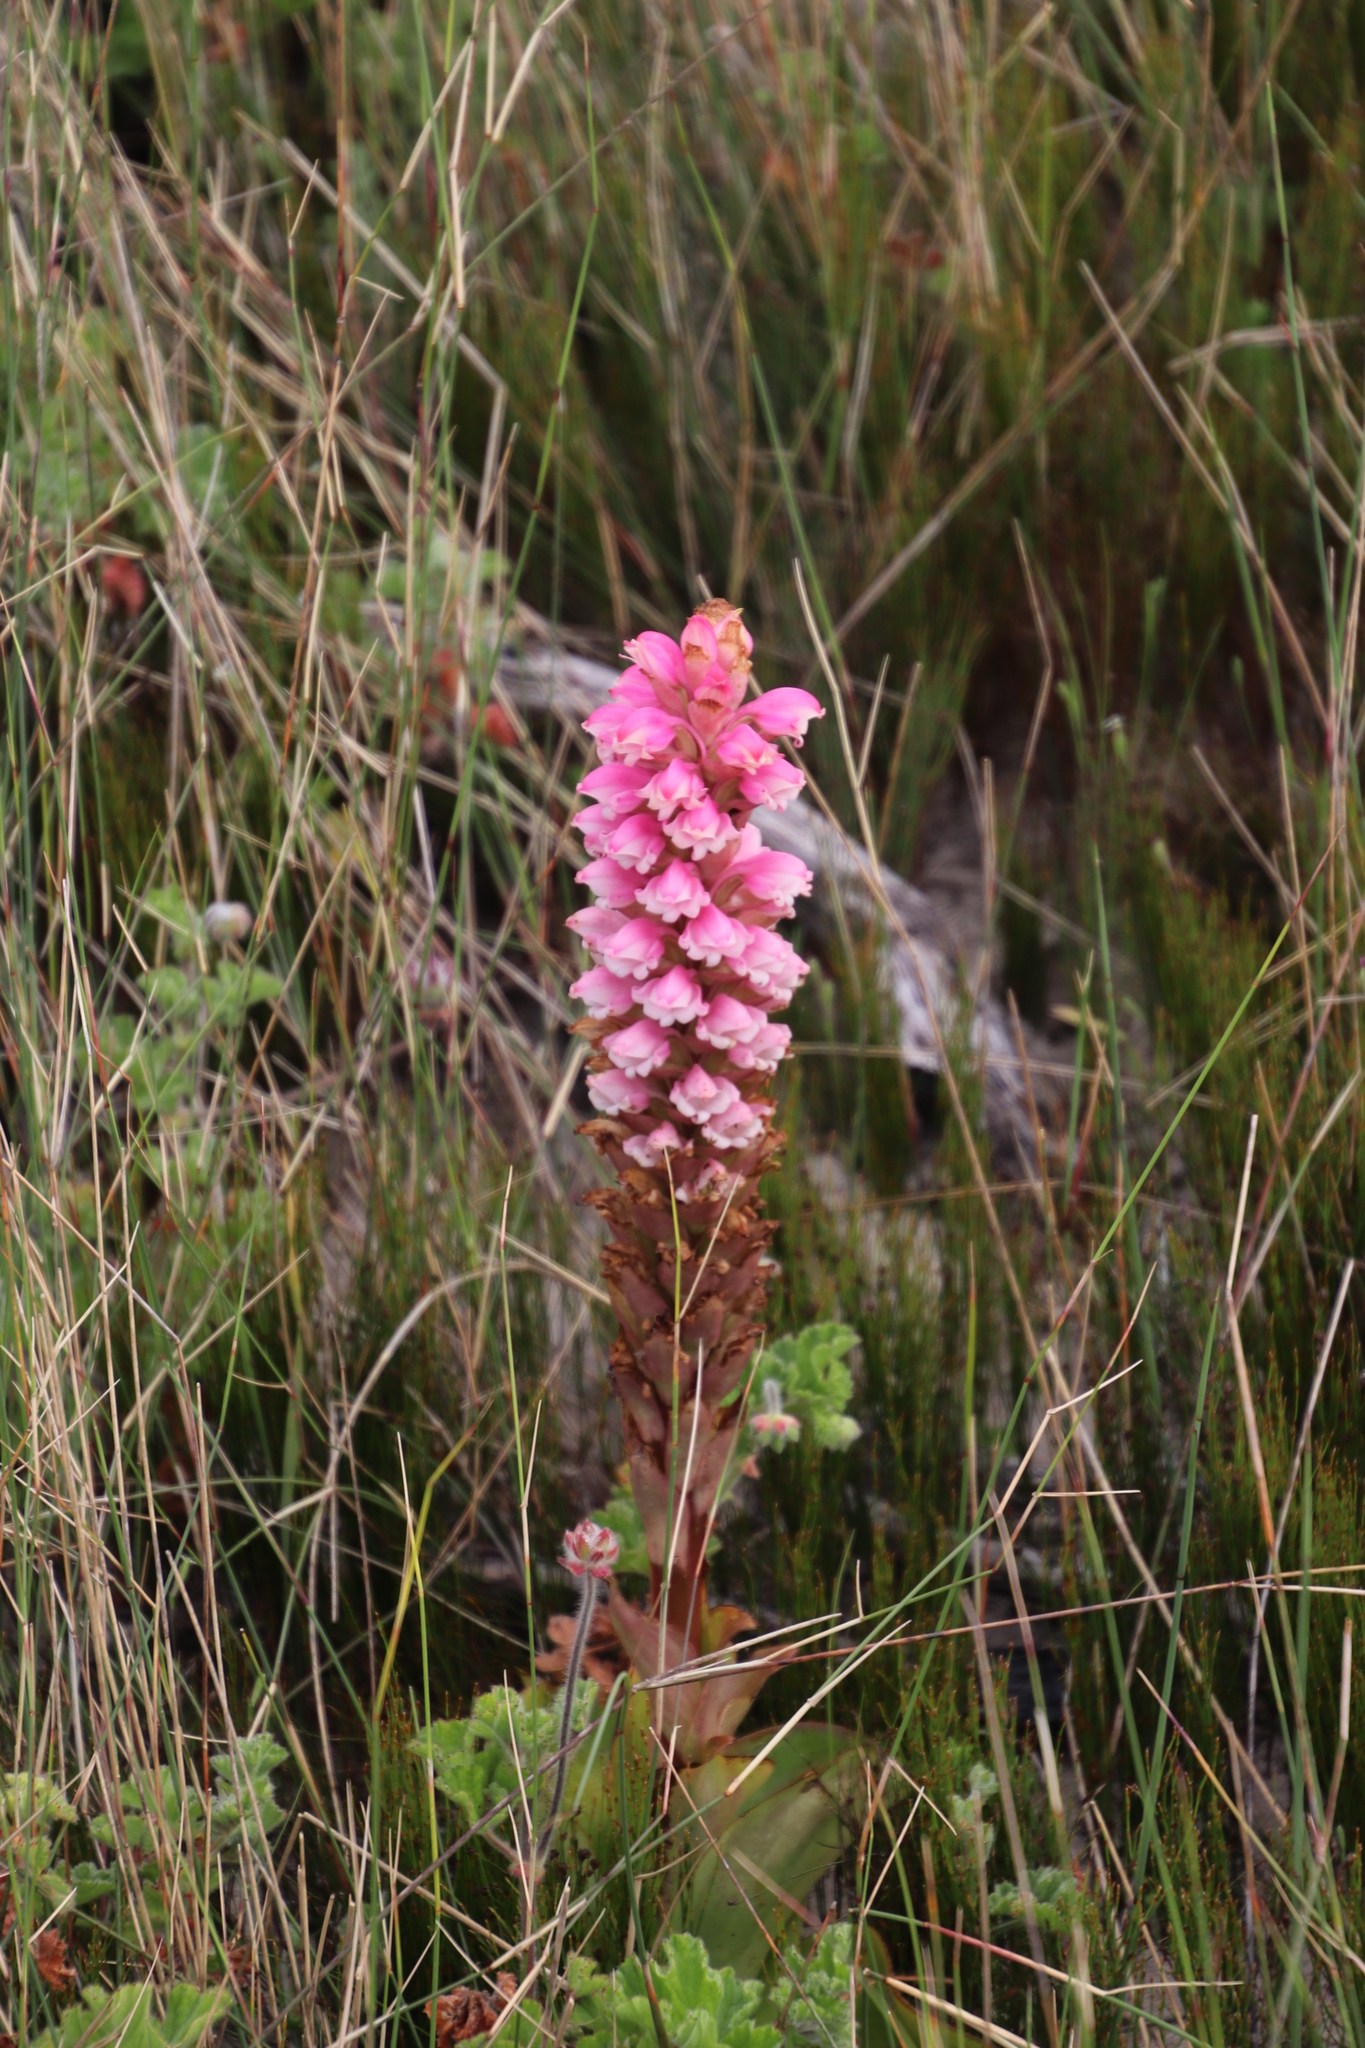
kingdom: Plantae
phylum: Tracheophyta
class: Liliopsida
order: Asparagales
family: Orchidaceae
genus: Satyrium
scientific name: Satyrium carneum
